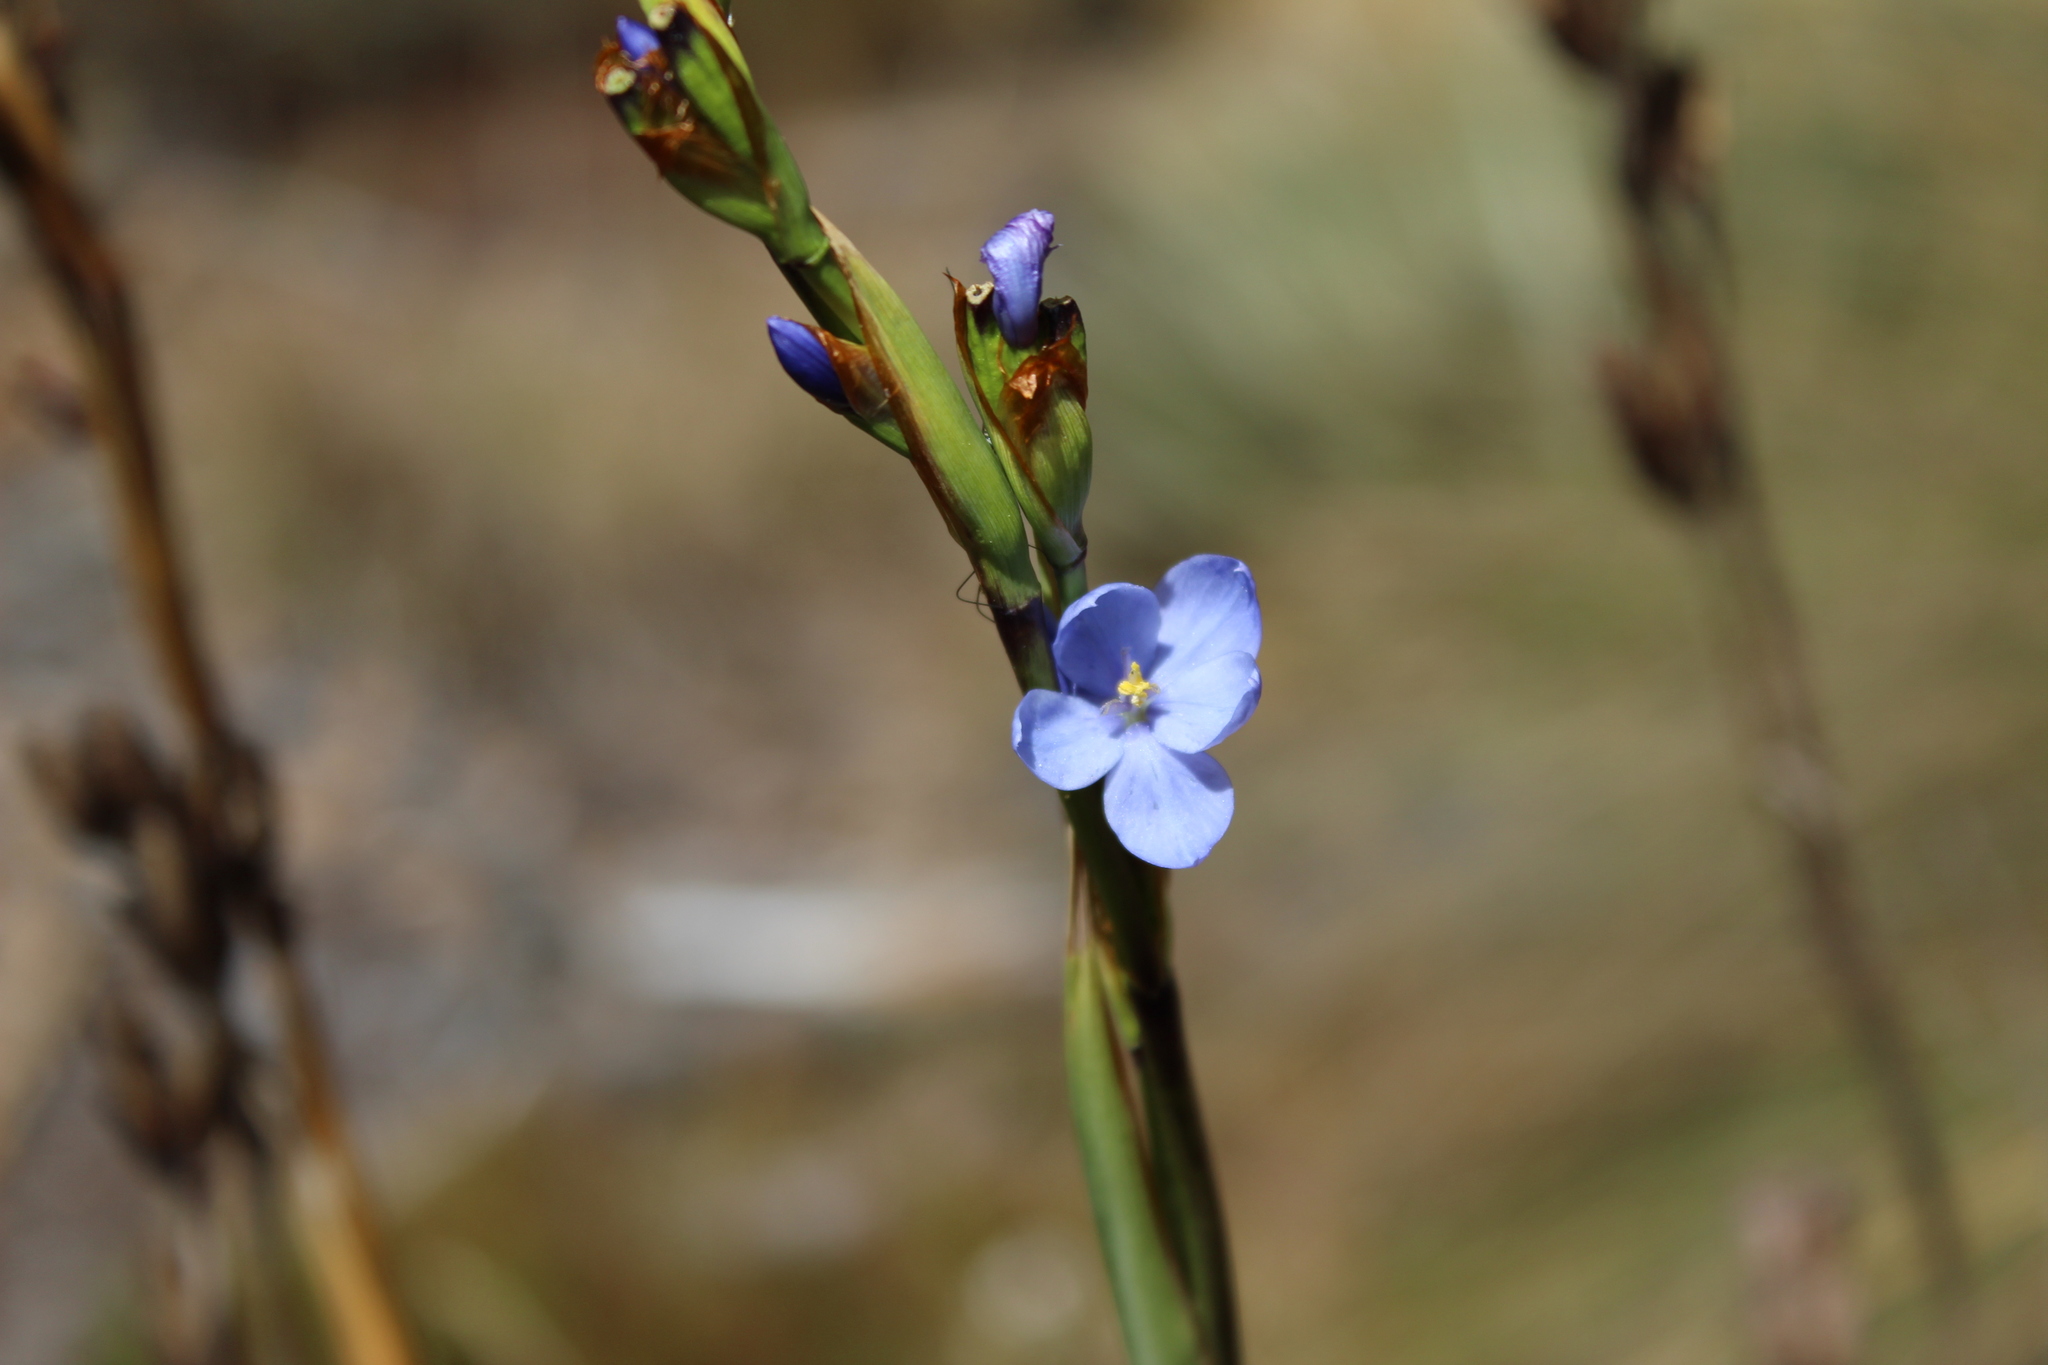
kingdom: Plantae
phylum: Tracheophyta
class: Liliopsida
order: Asparagales
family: Iridaceae
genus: Orthrosanthus
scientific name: Orthrosanthus chimboracensis
